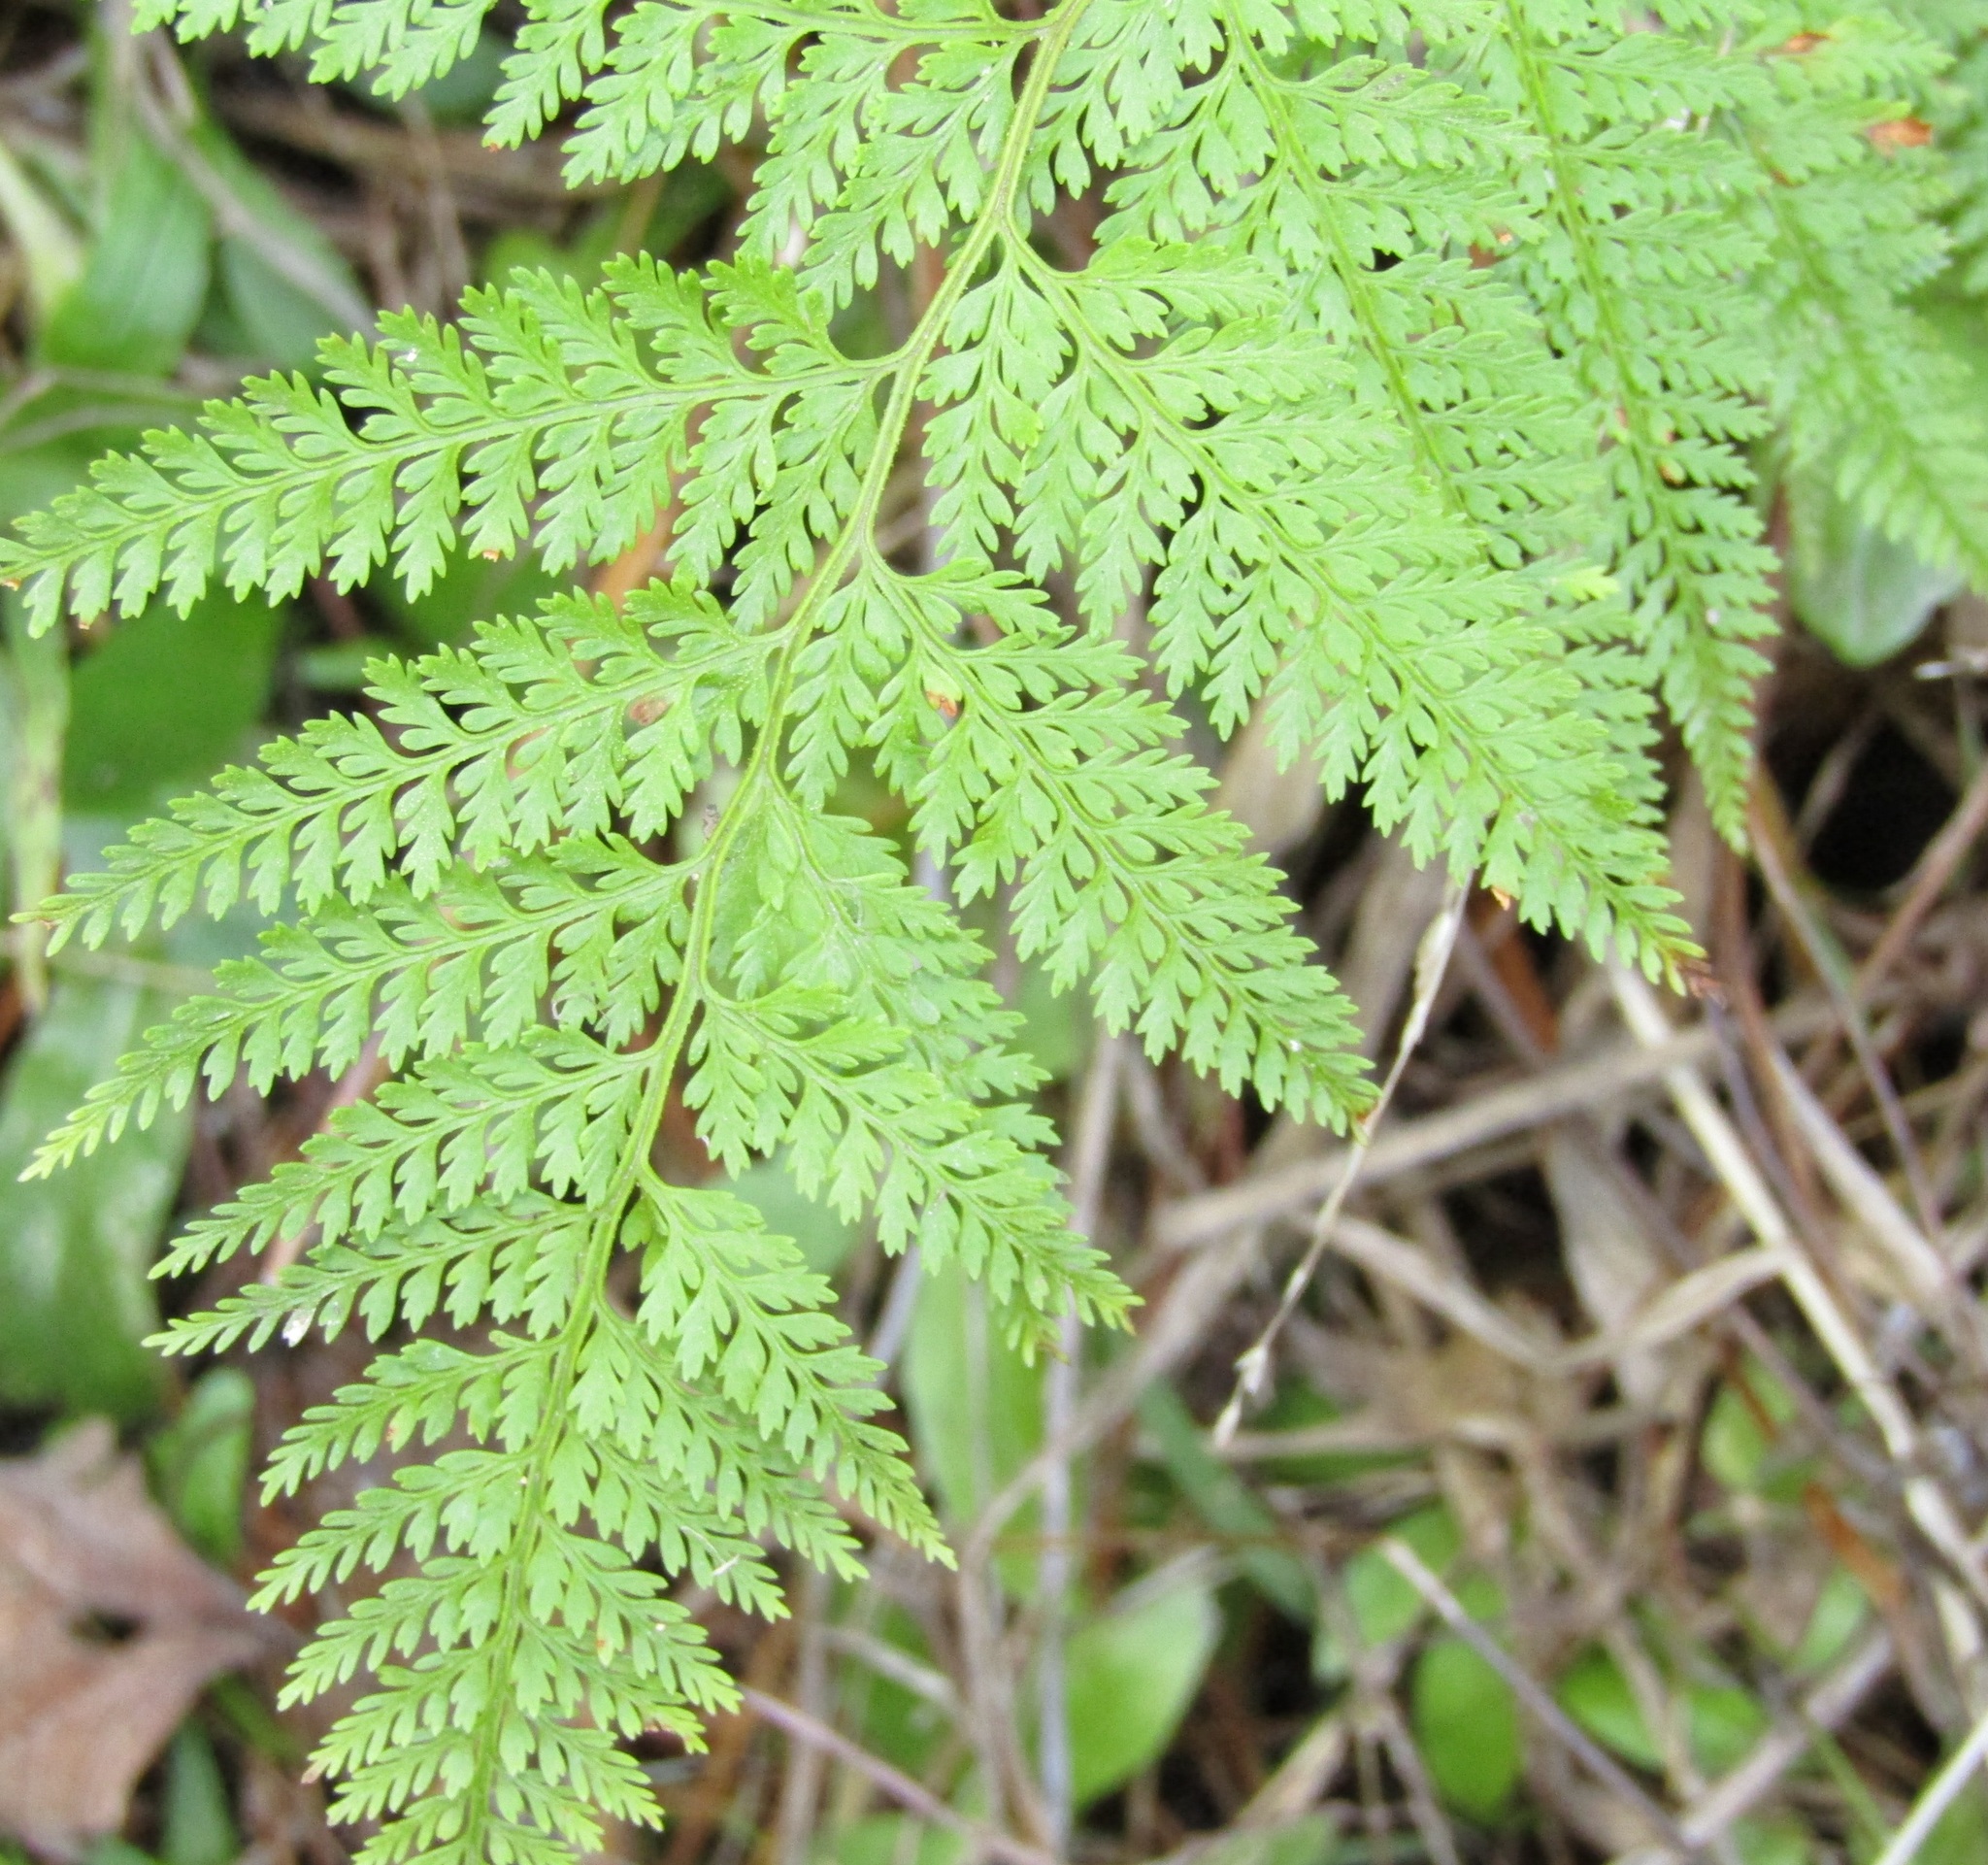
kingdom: Plantae
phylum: Tracheophyta
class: Polypodiopsida
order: Polypodiales
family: Dennstaedtiaceae
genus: Paesia
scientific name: Paesia scaberula
